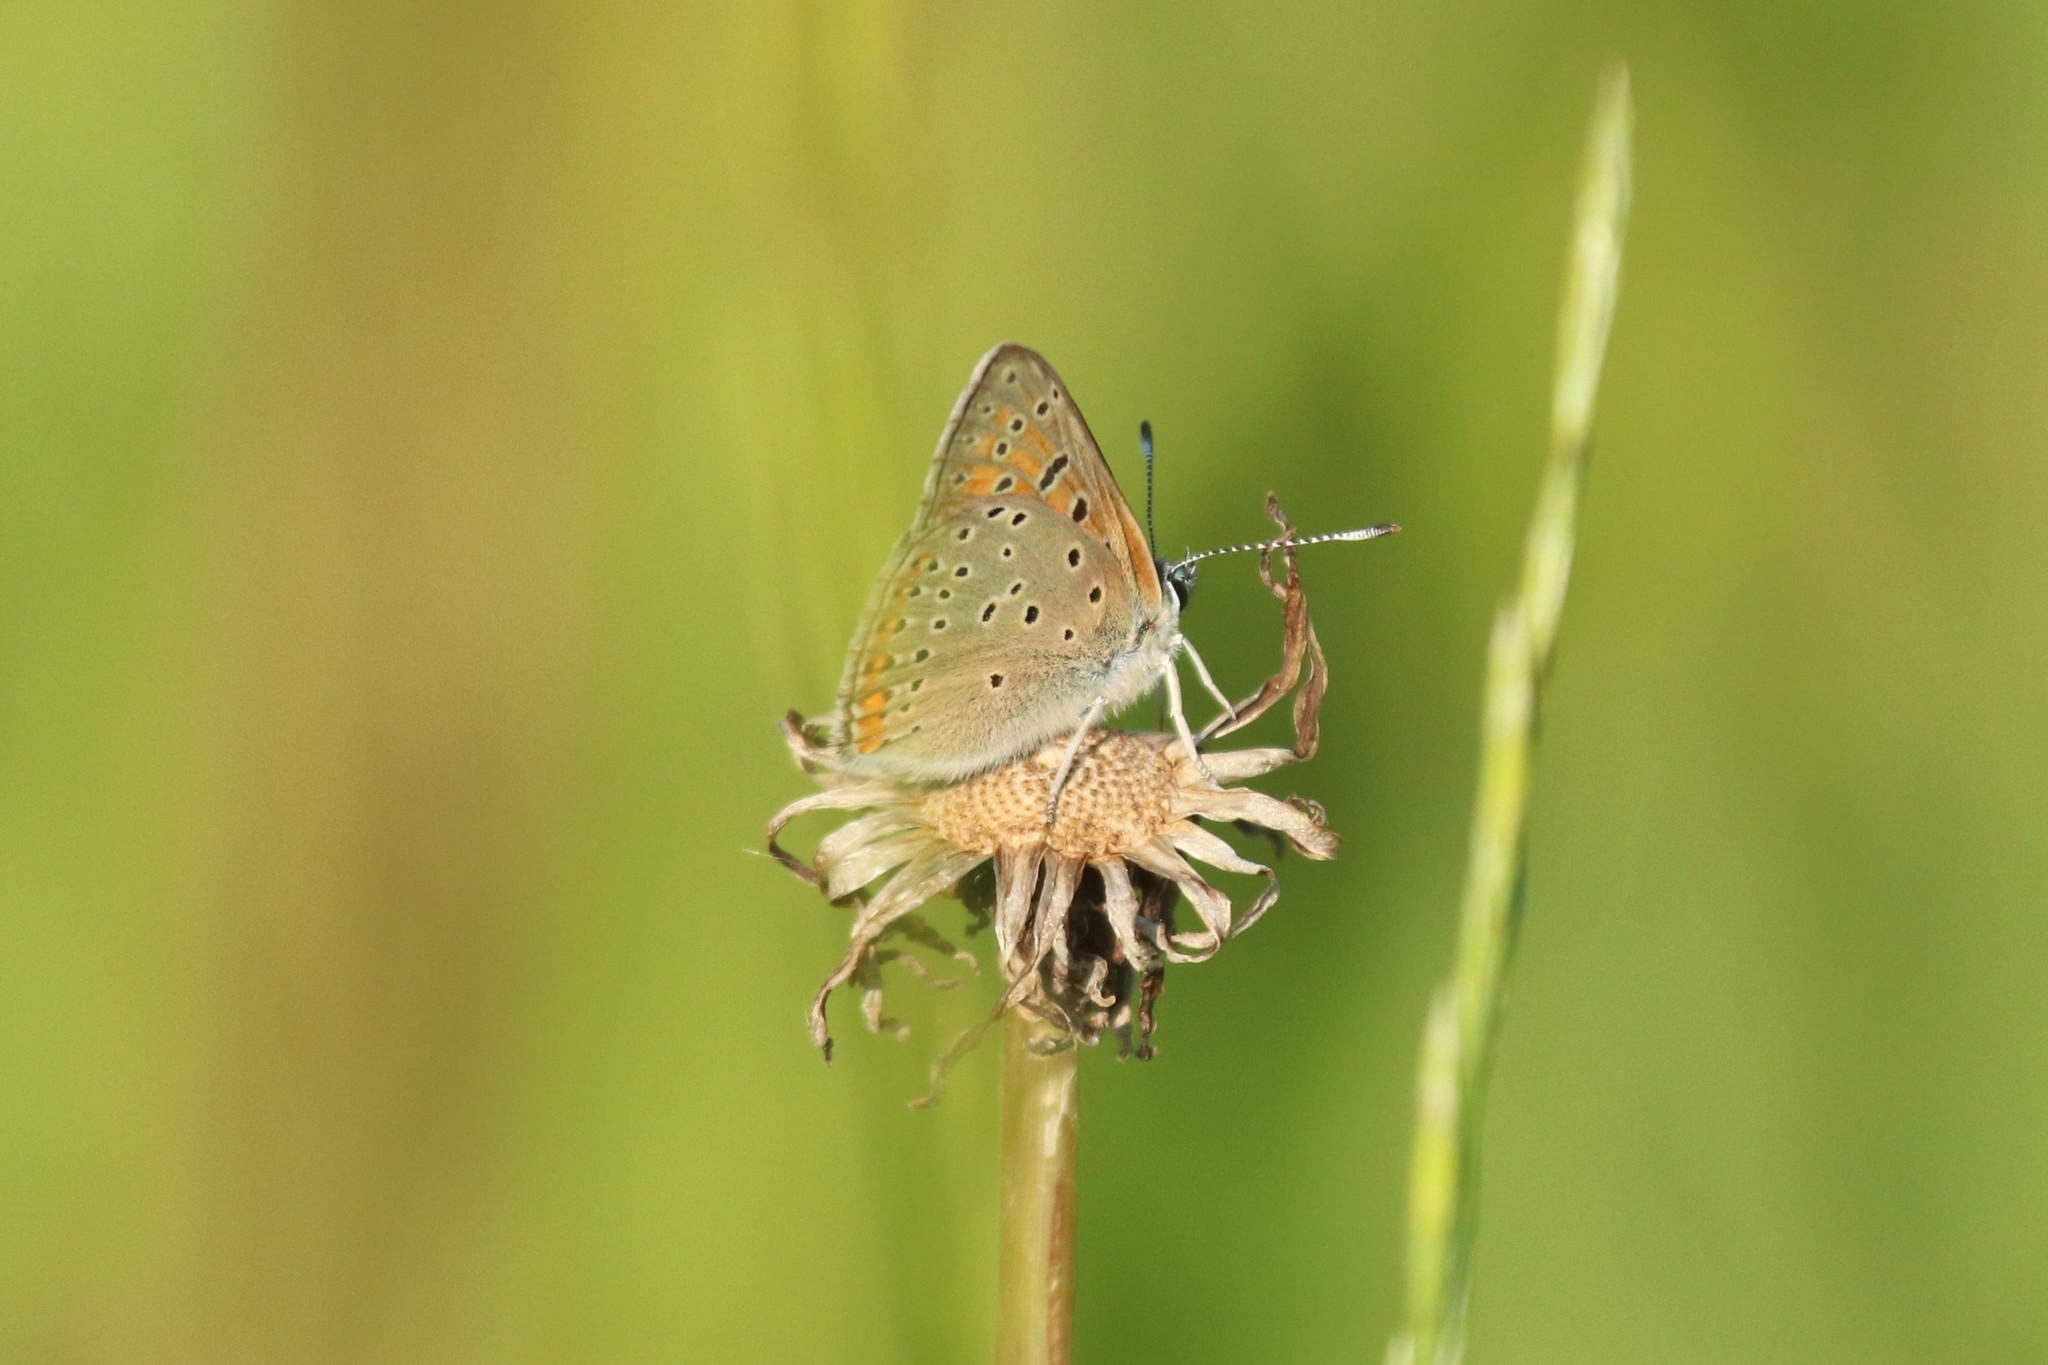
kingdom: Animalia
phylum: Arthropoda
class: Insecta
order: Lepidoptera
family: Lycaenidae
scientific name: Lycaenidae
